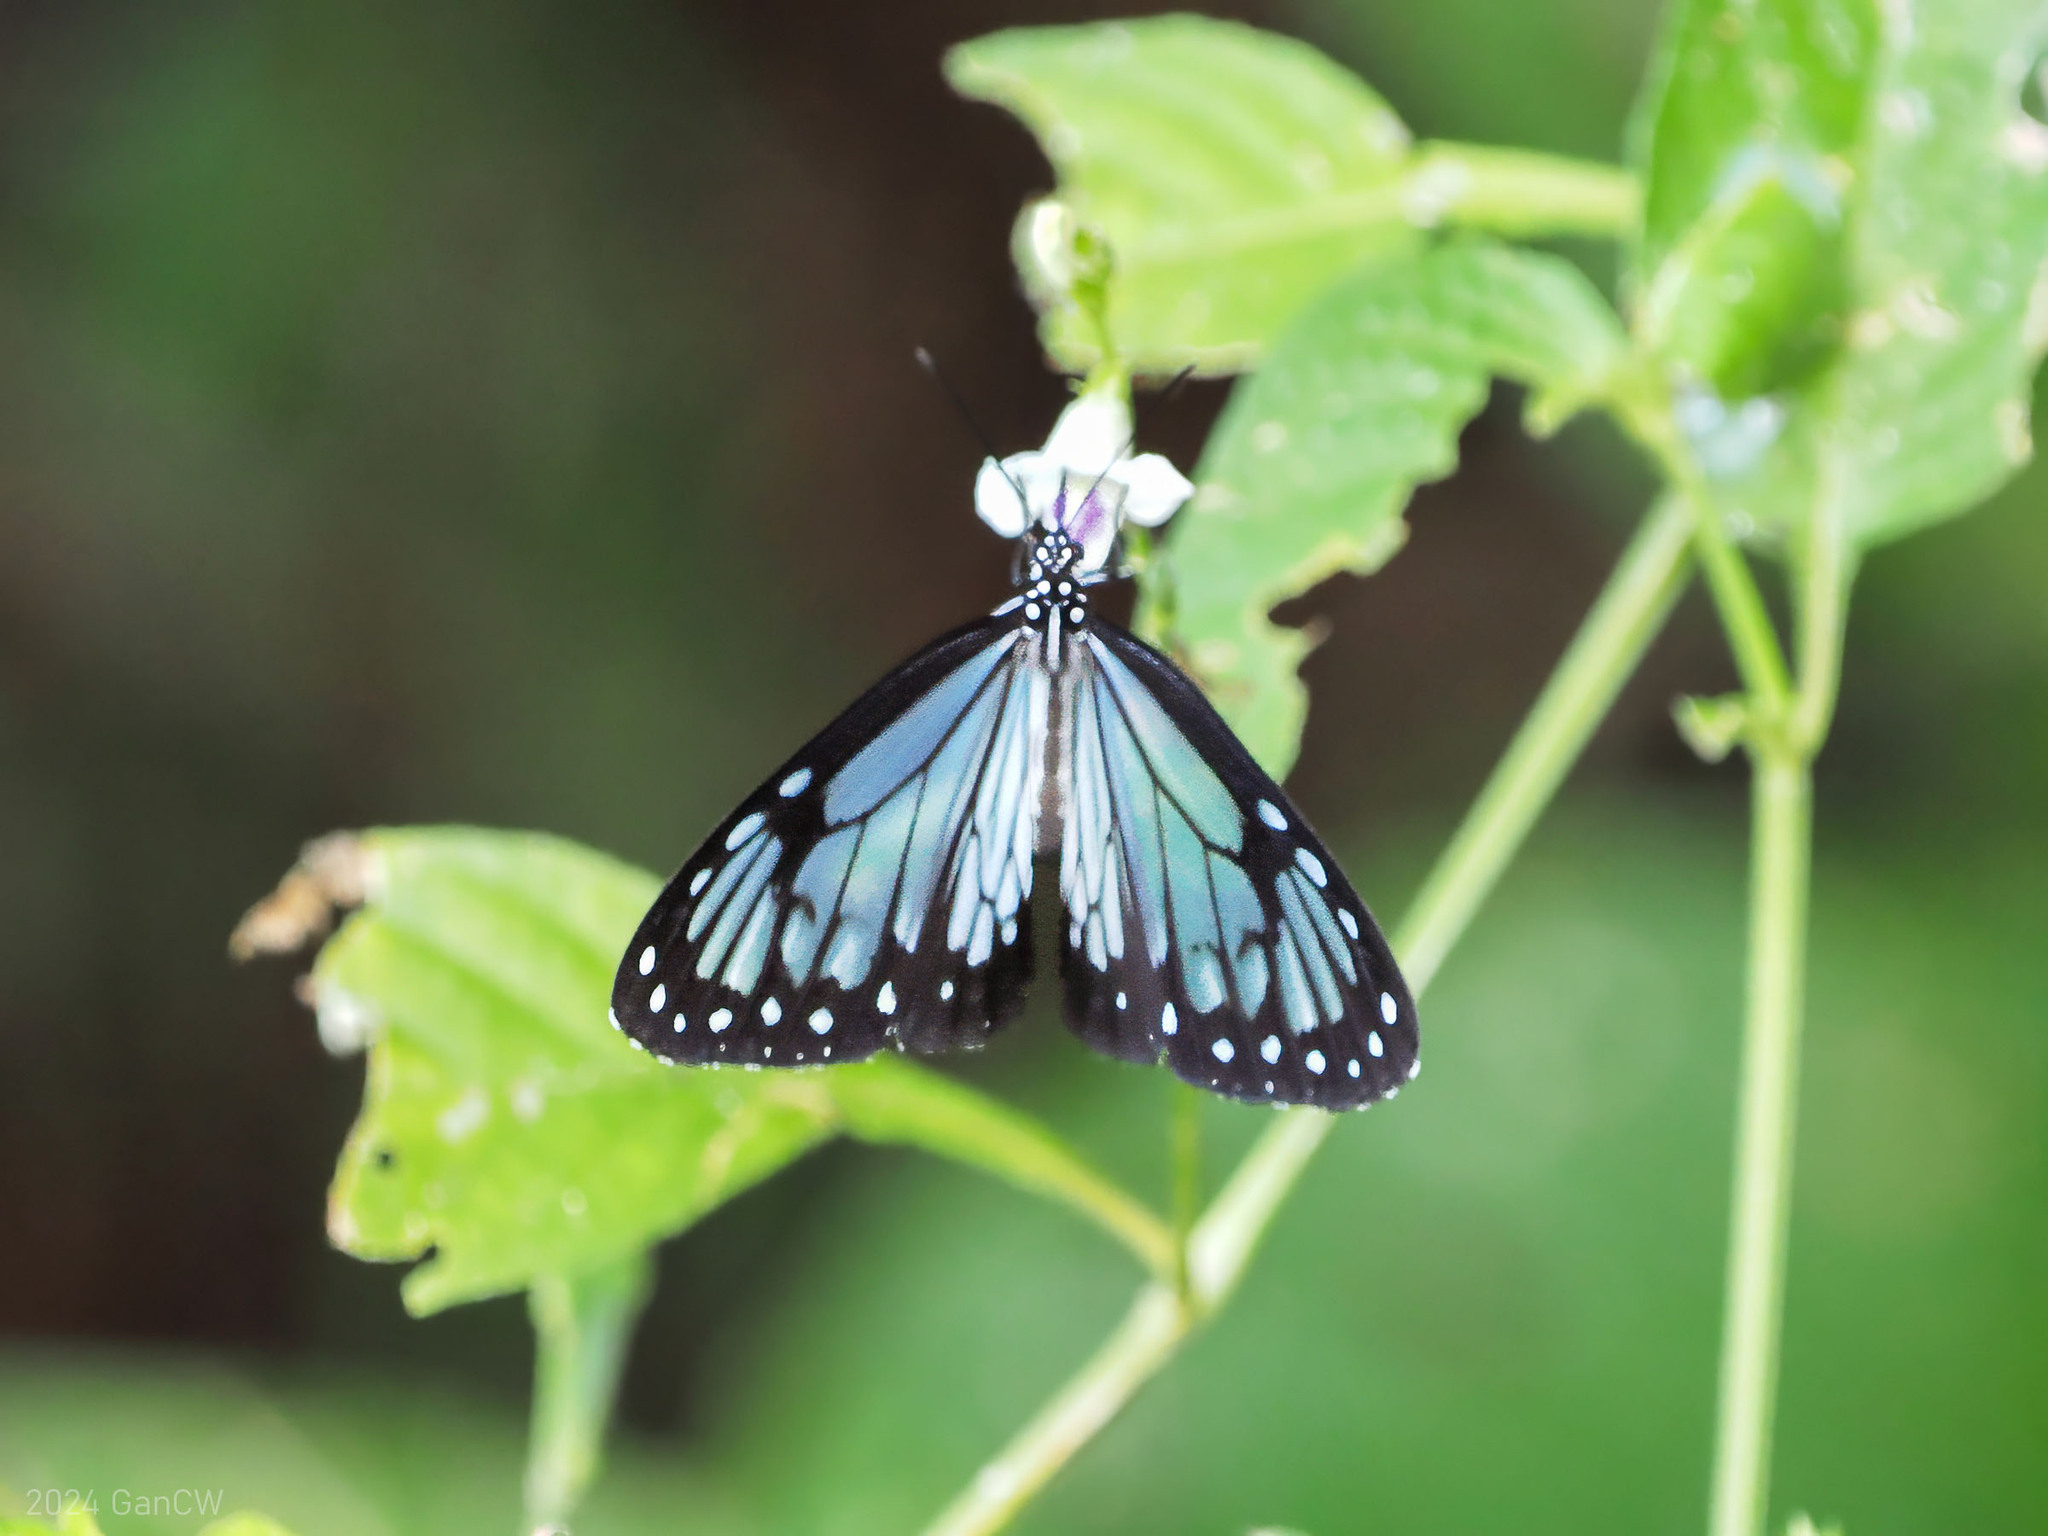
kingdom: Animalia
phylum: Arthropoda
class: Insecta
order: Lepidoptera
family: Nymphalidae
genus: Parantica
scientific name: Parantica vitrina
